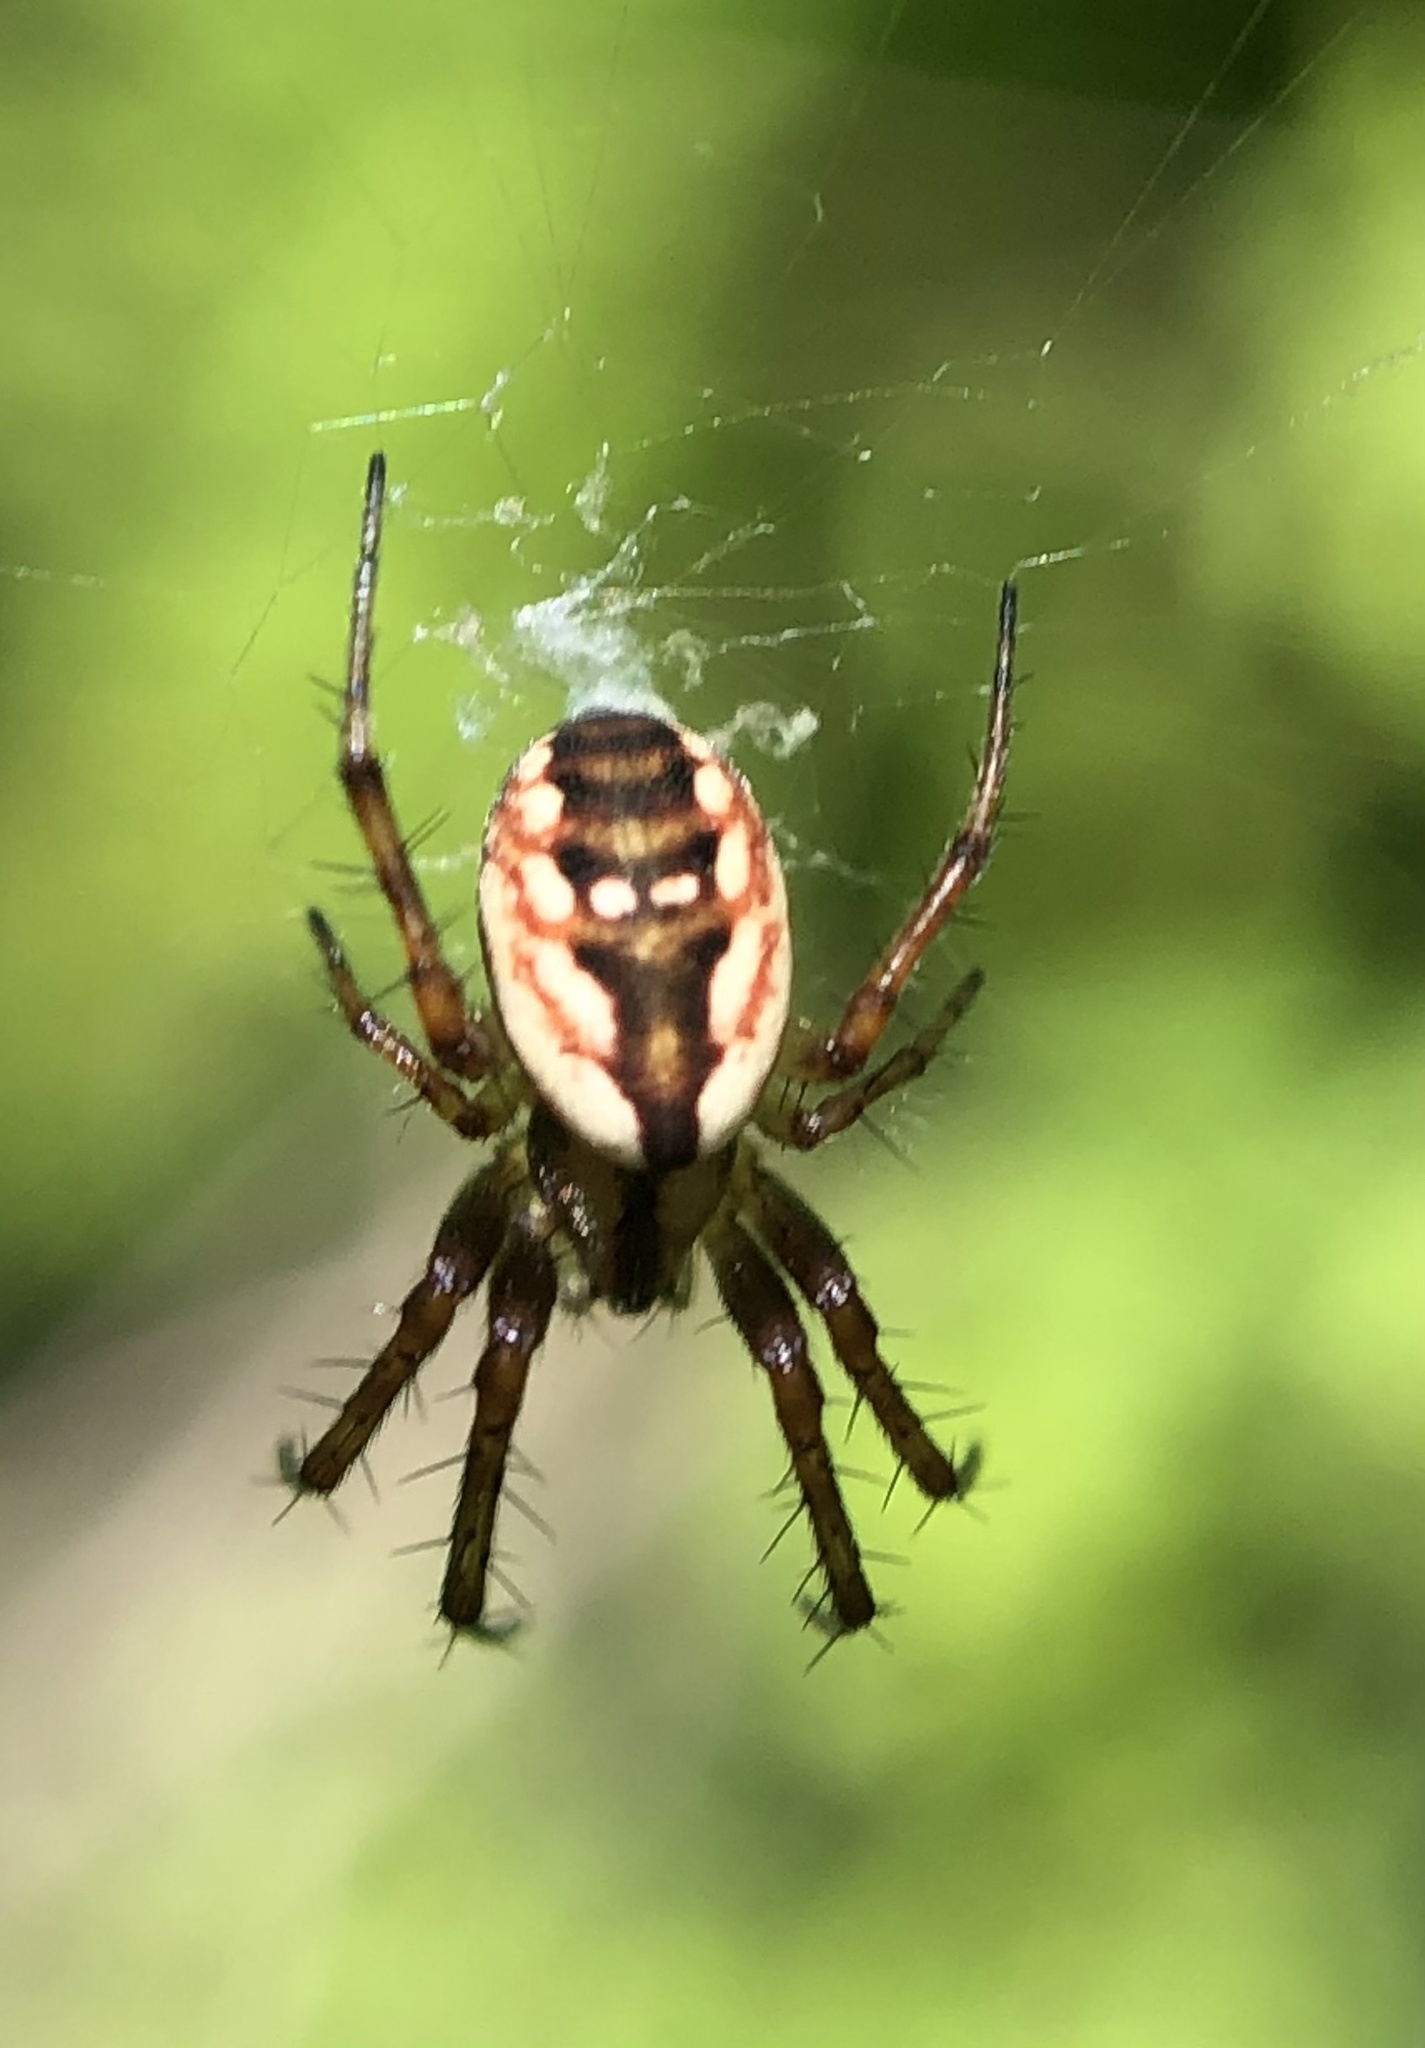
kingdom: Animalia
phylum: Arthropoda
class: Arachnida
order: Araneae
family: Araneidae
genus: Mangora
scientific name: Mangora placida
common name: Tuft-legged orbweaver
